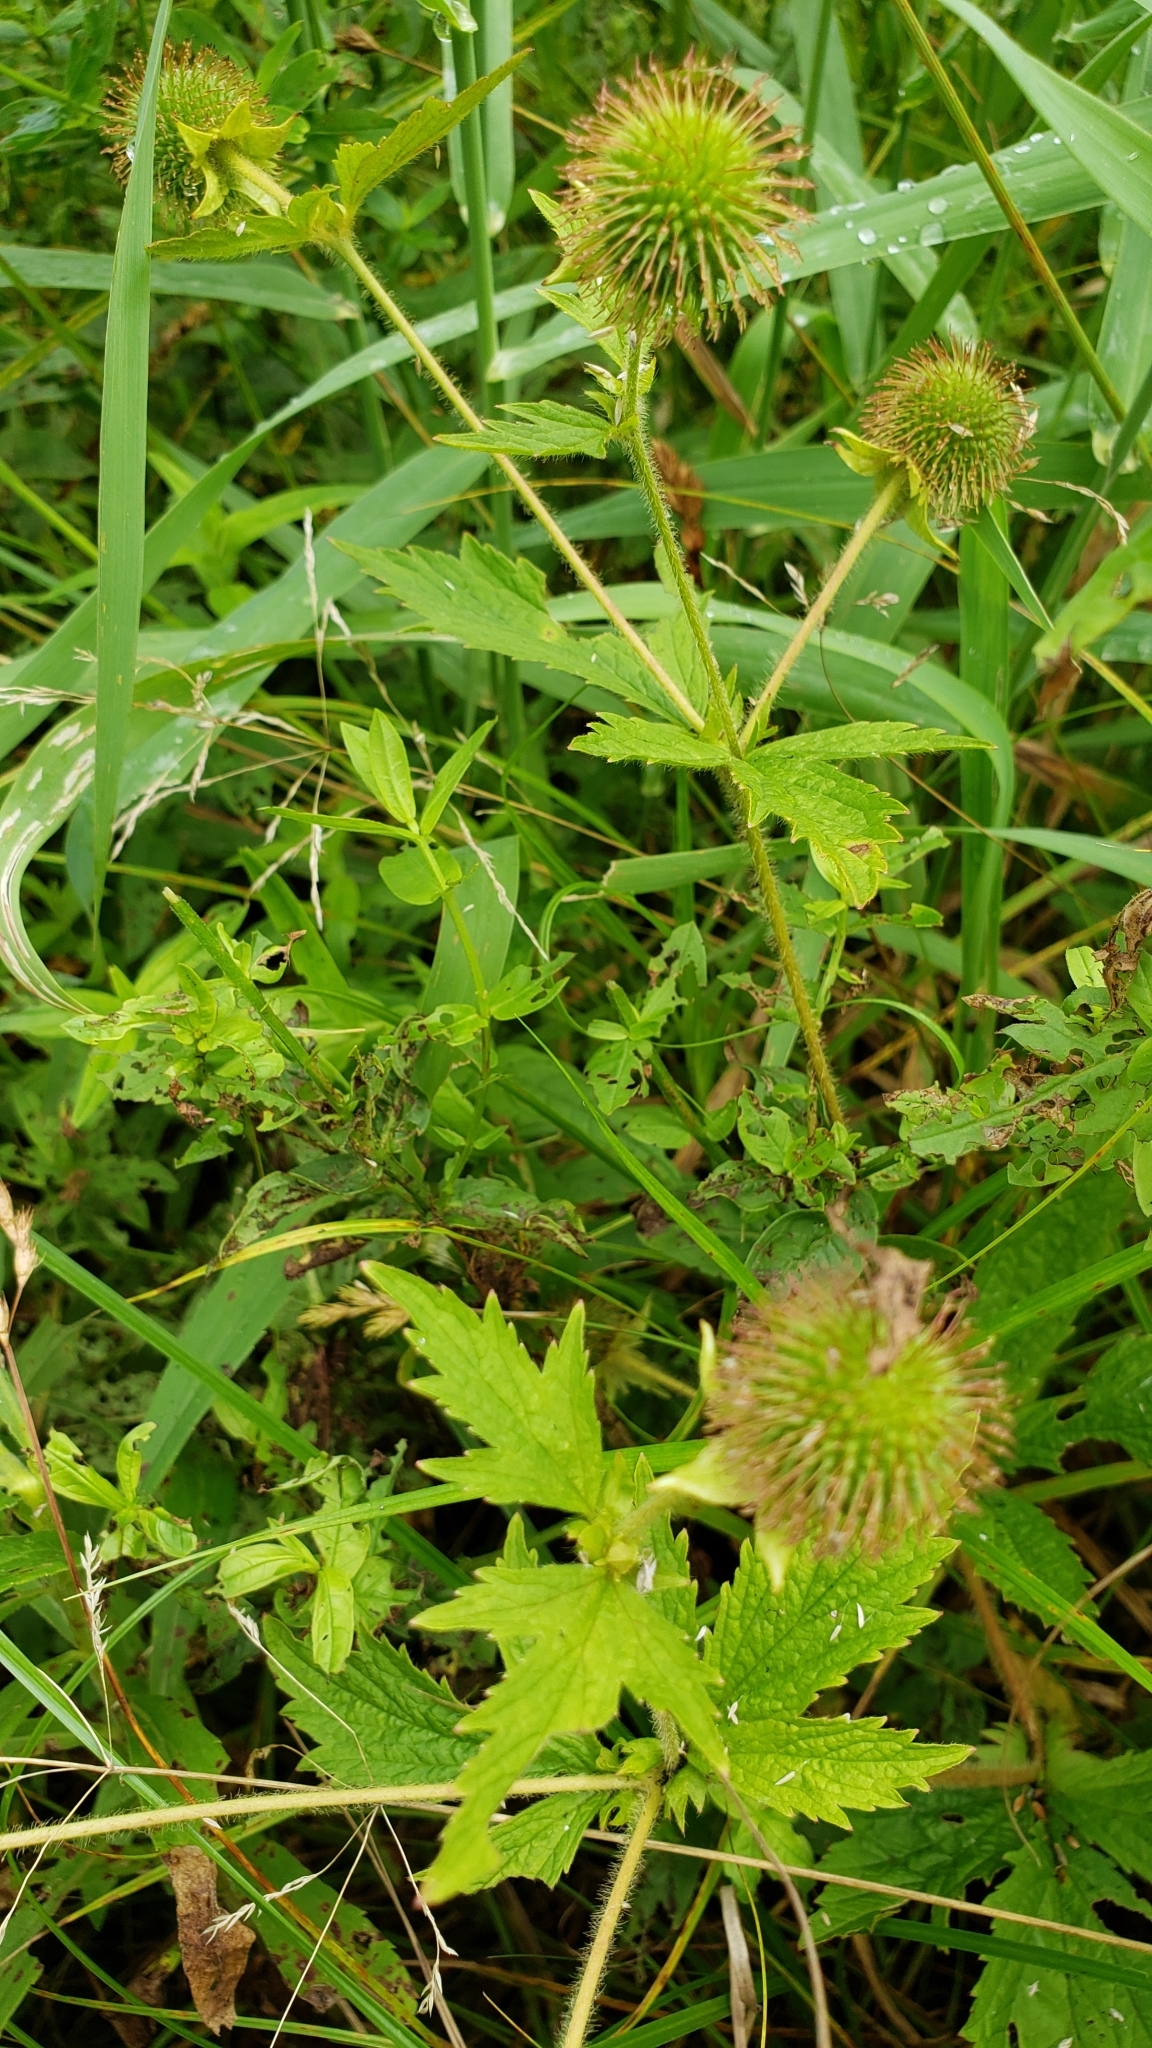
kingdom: Plantae
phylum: Tracheophyta
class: Magnoliopsida
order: Rosales
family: Rosaceae
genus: Geum
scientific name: Geum laciniatum
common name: Rough avens
